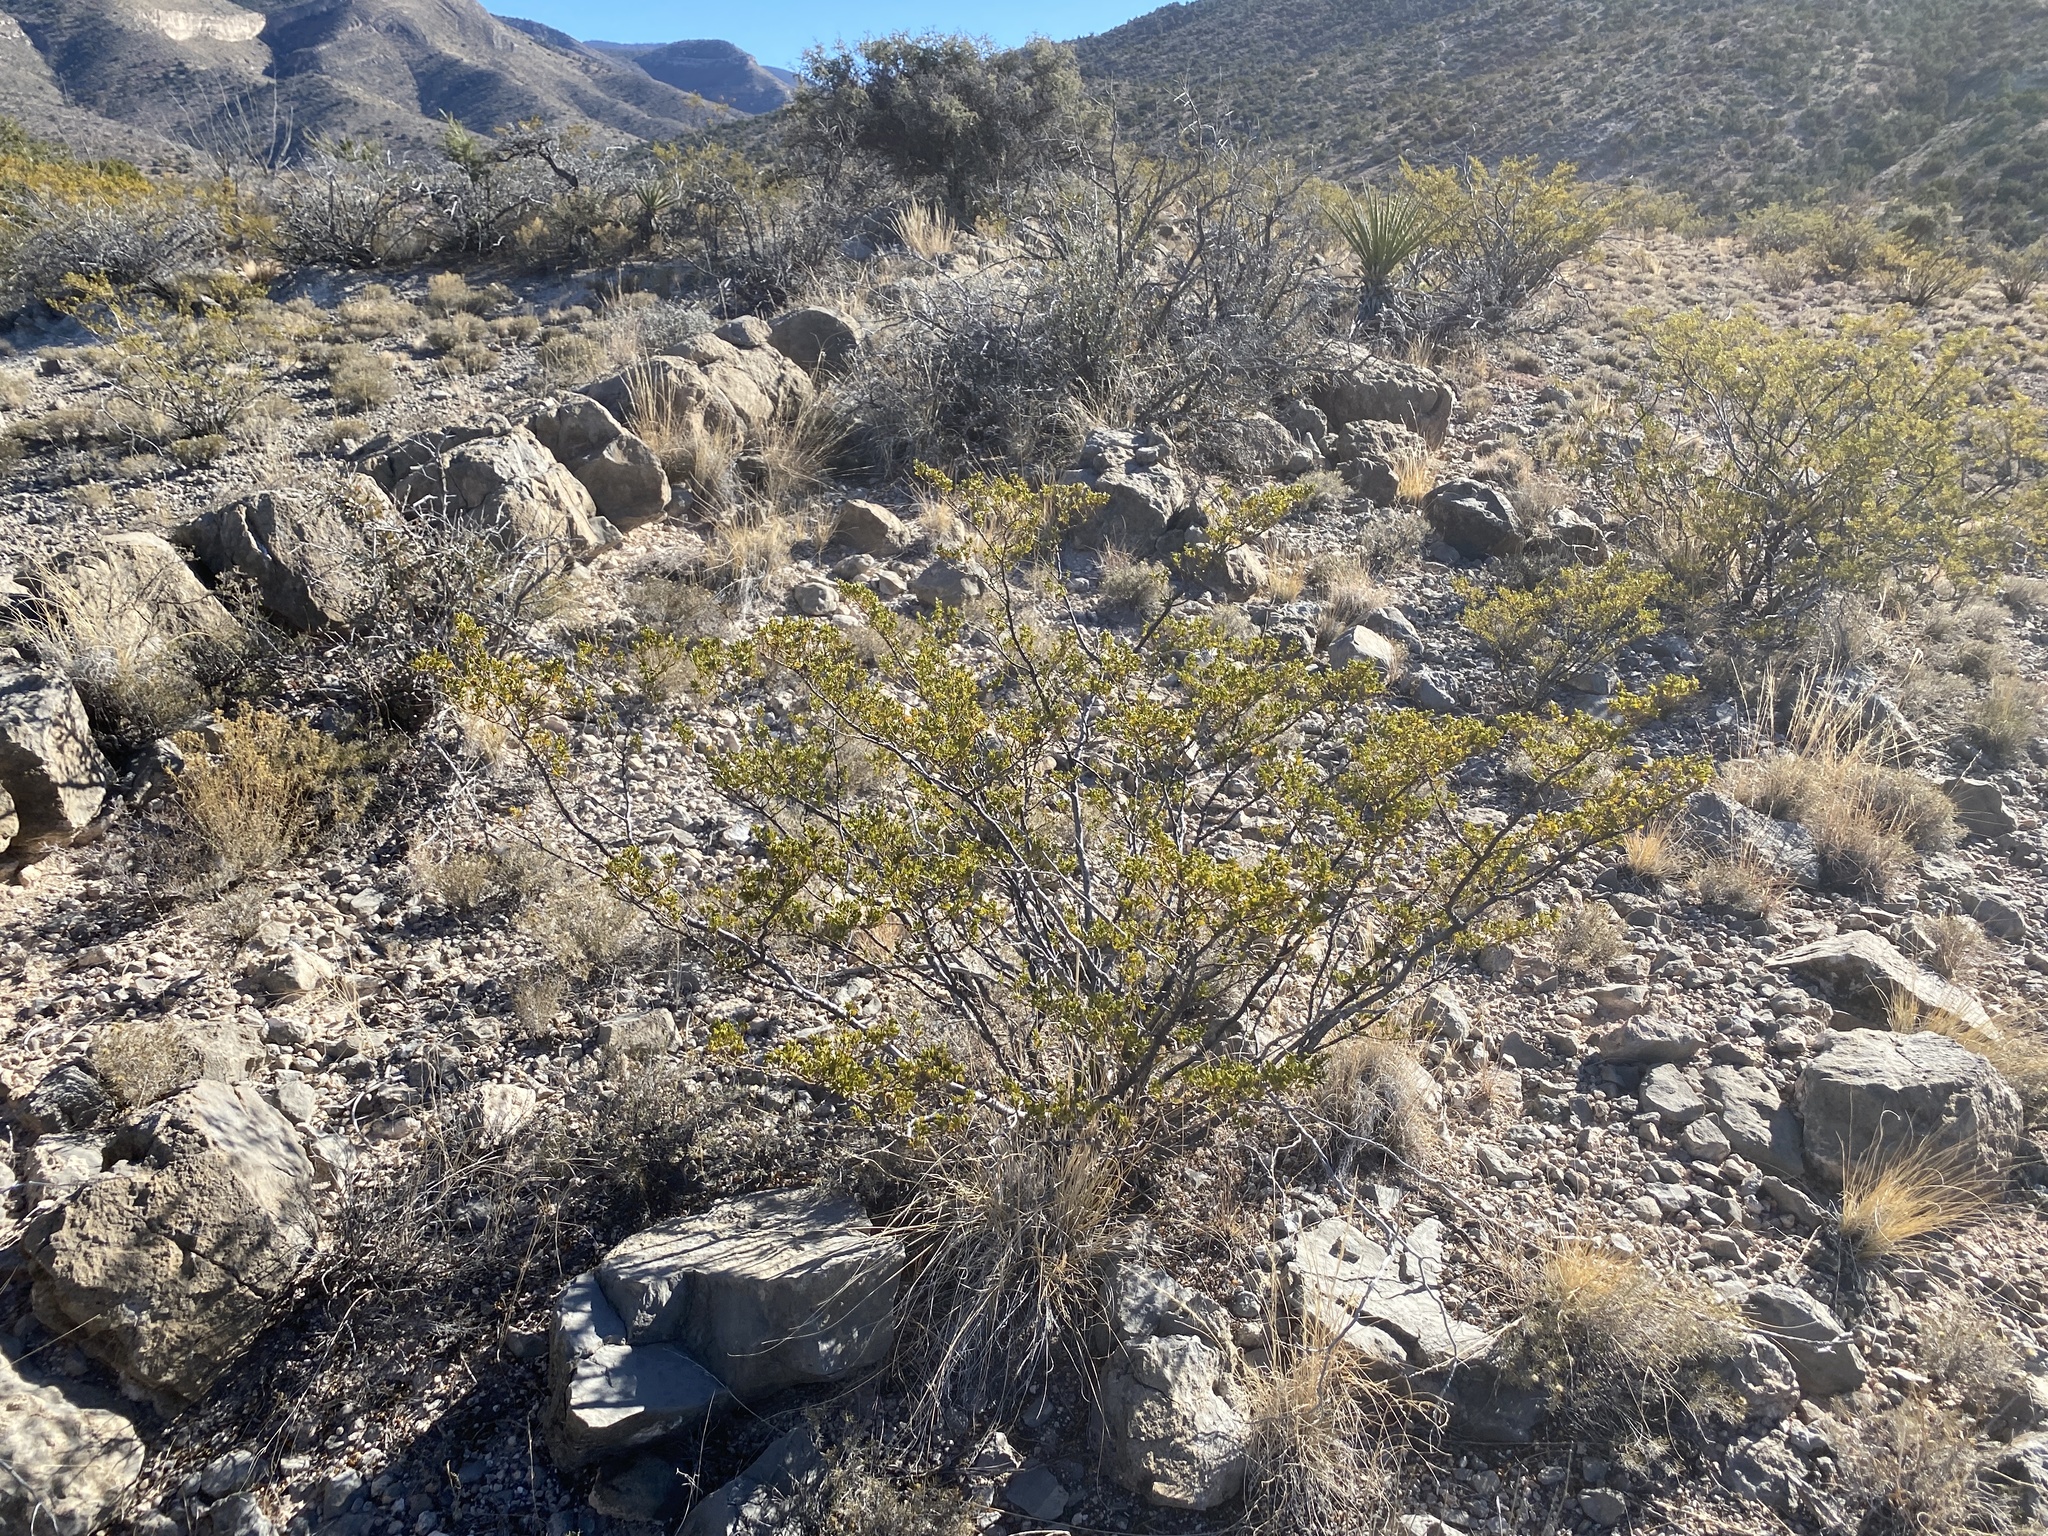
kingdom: Plantae
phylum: Tracheophyta
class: Magnoliopsida
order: Zygophyllales
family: Zygophyllaceae
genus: Larrea
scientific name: Larrea tridentata
